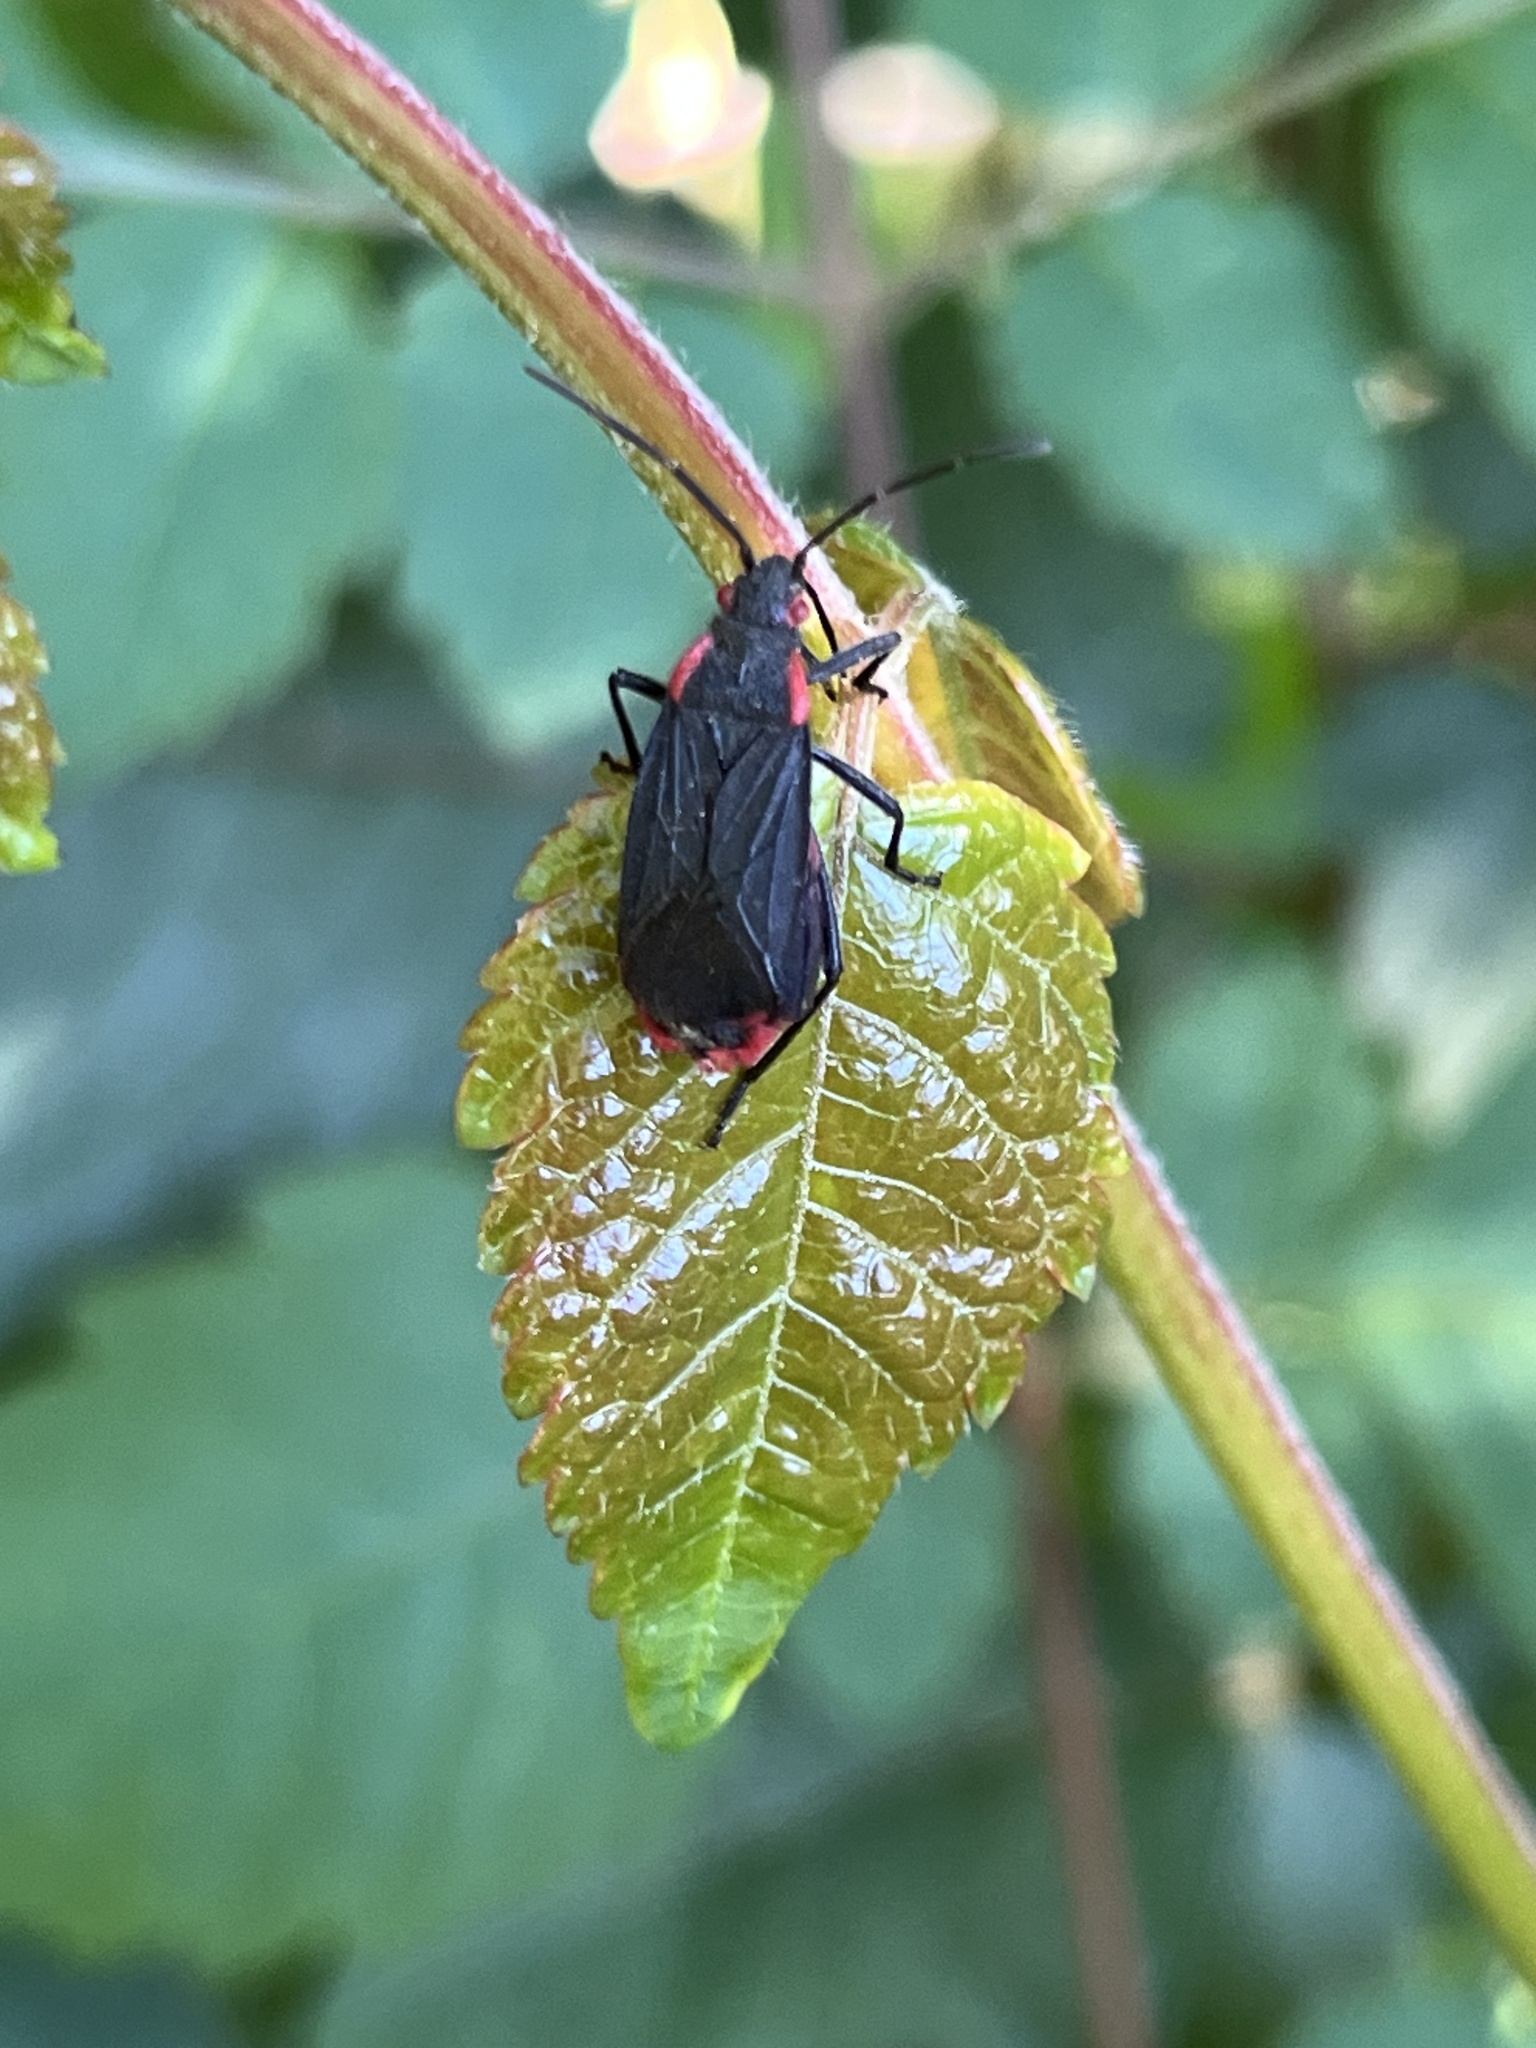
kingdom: Animalia
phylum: Arthropoda
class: Insecta
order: Hemiptera
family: Rhopalidae
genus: Jadera
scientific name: Jadera haematoloma
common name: Red-shouldered bug
